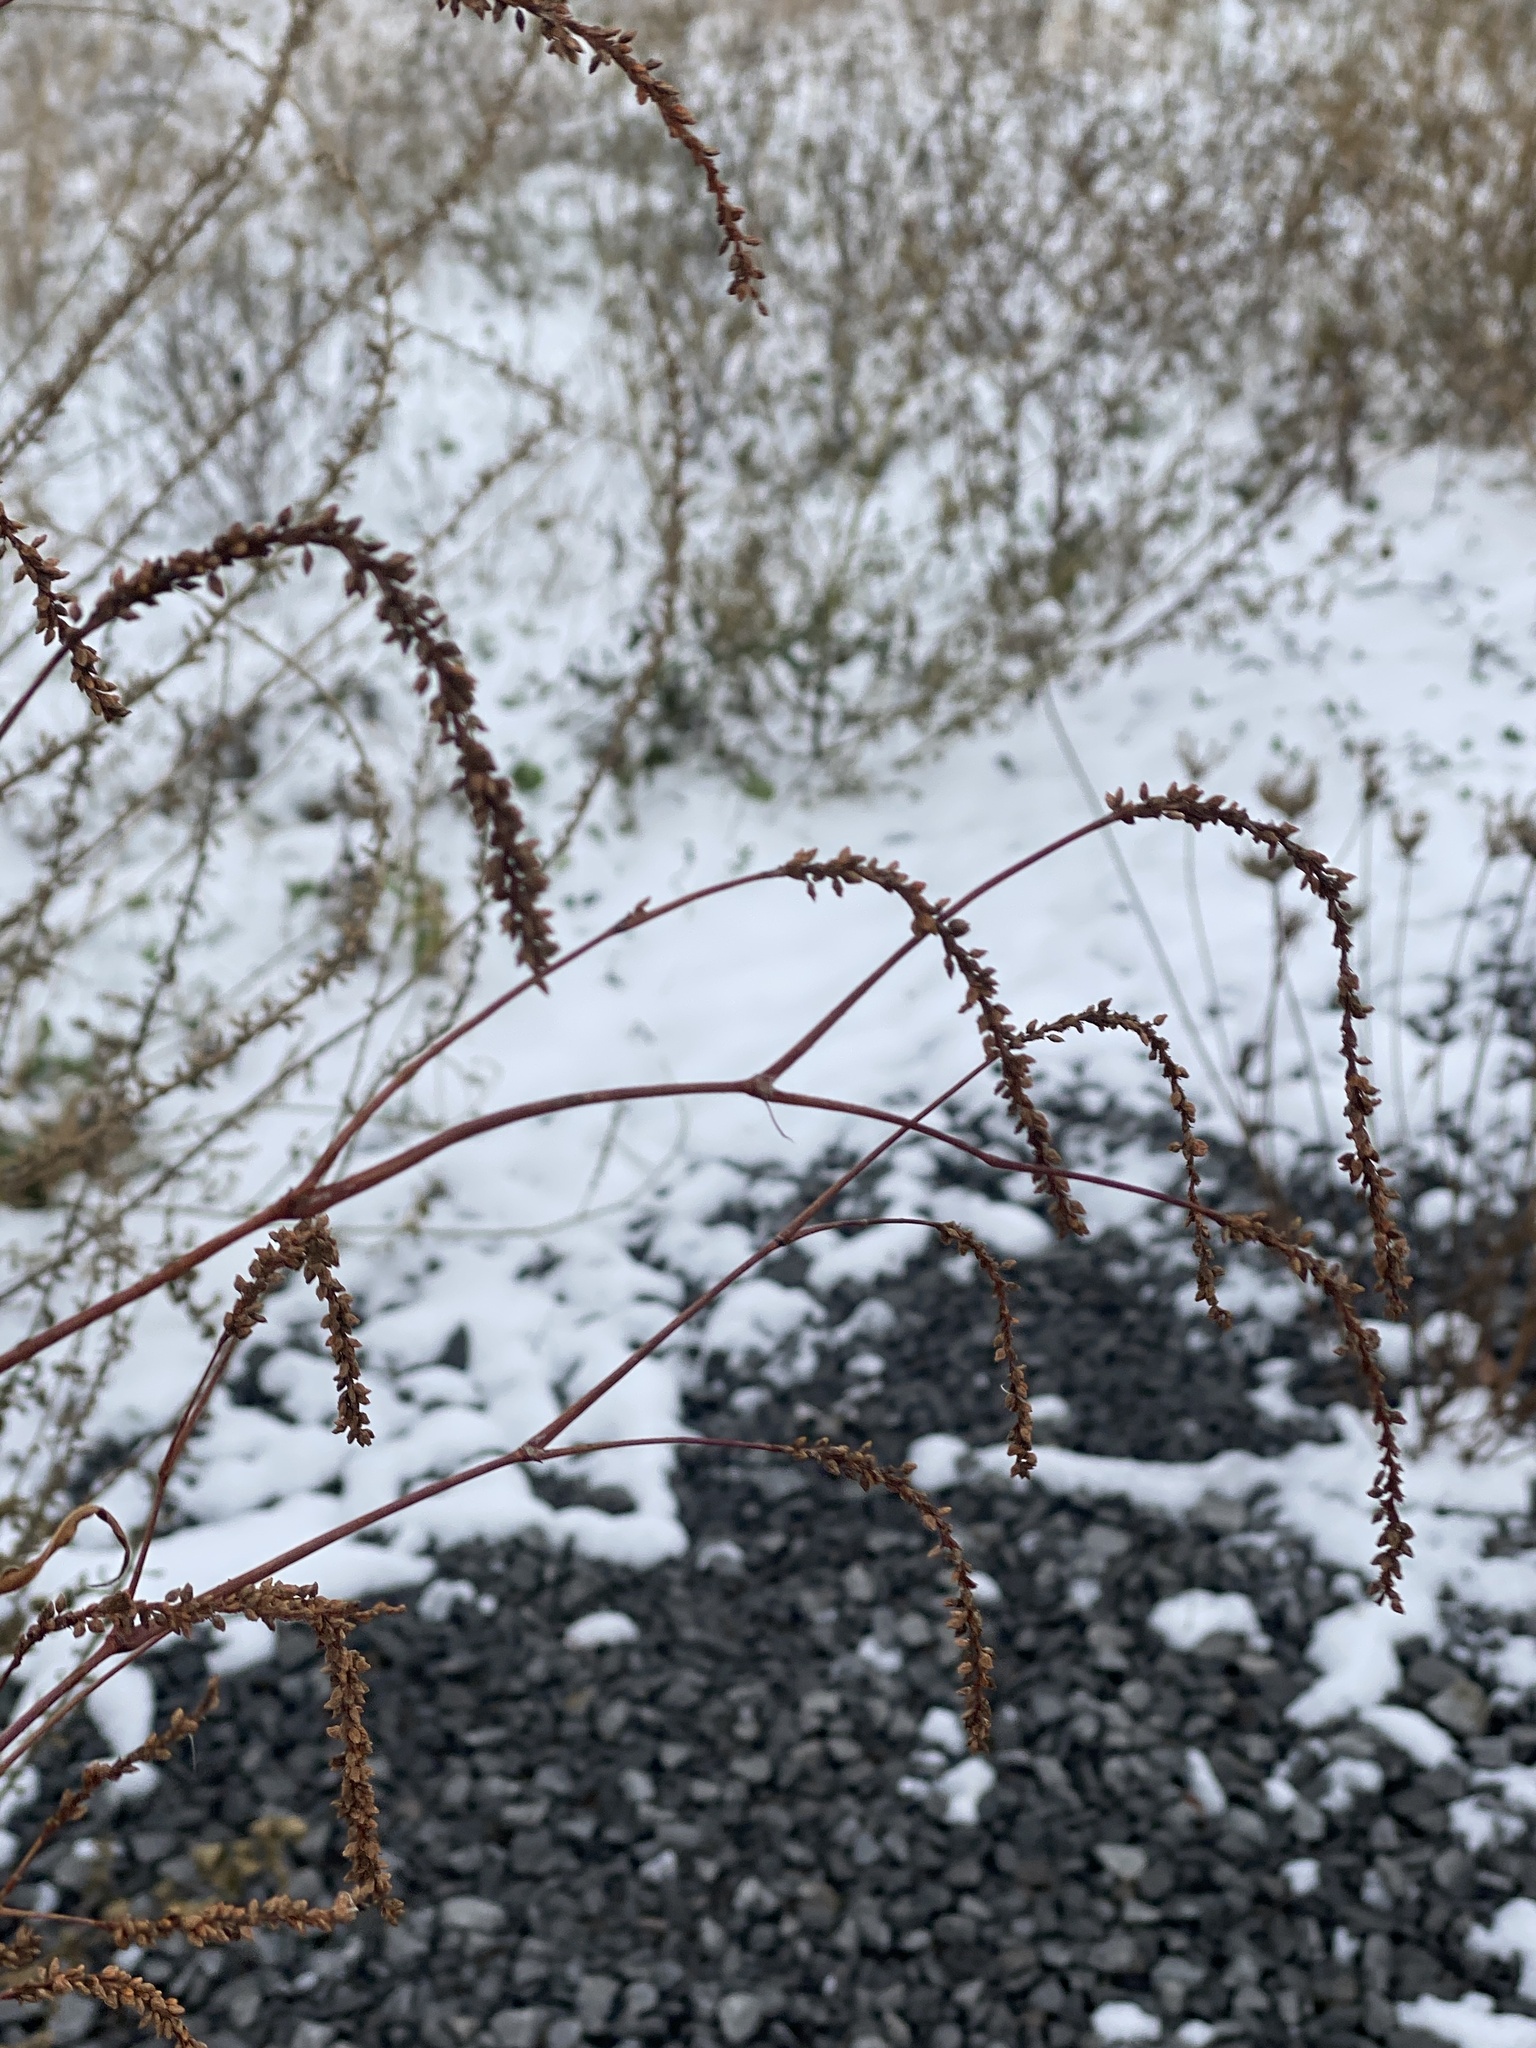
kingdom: Plantae
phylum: Tracheophyta
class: Magnoliopsida
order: Caryophyllales
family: Polygonaceae
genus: Persicaria
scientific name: Persicaria extremiorientalis
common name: Far-eastern smartweed
